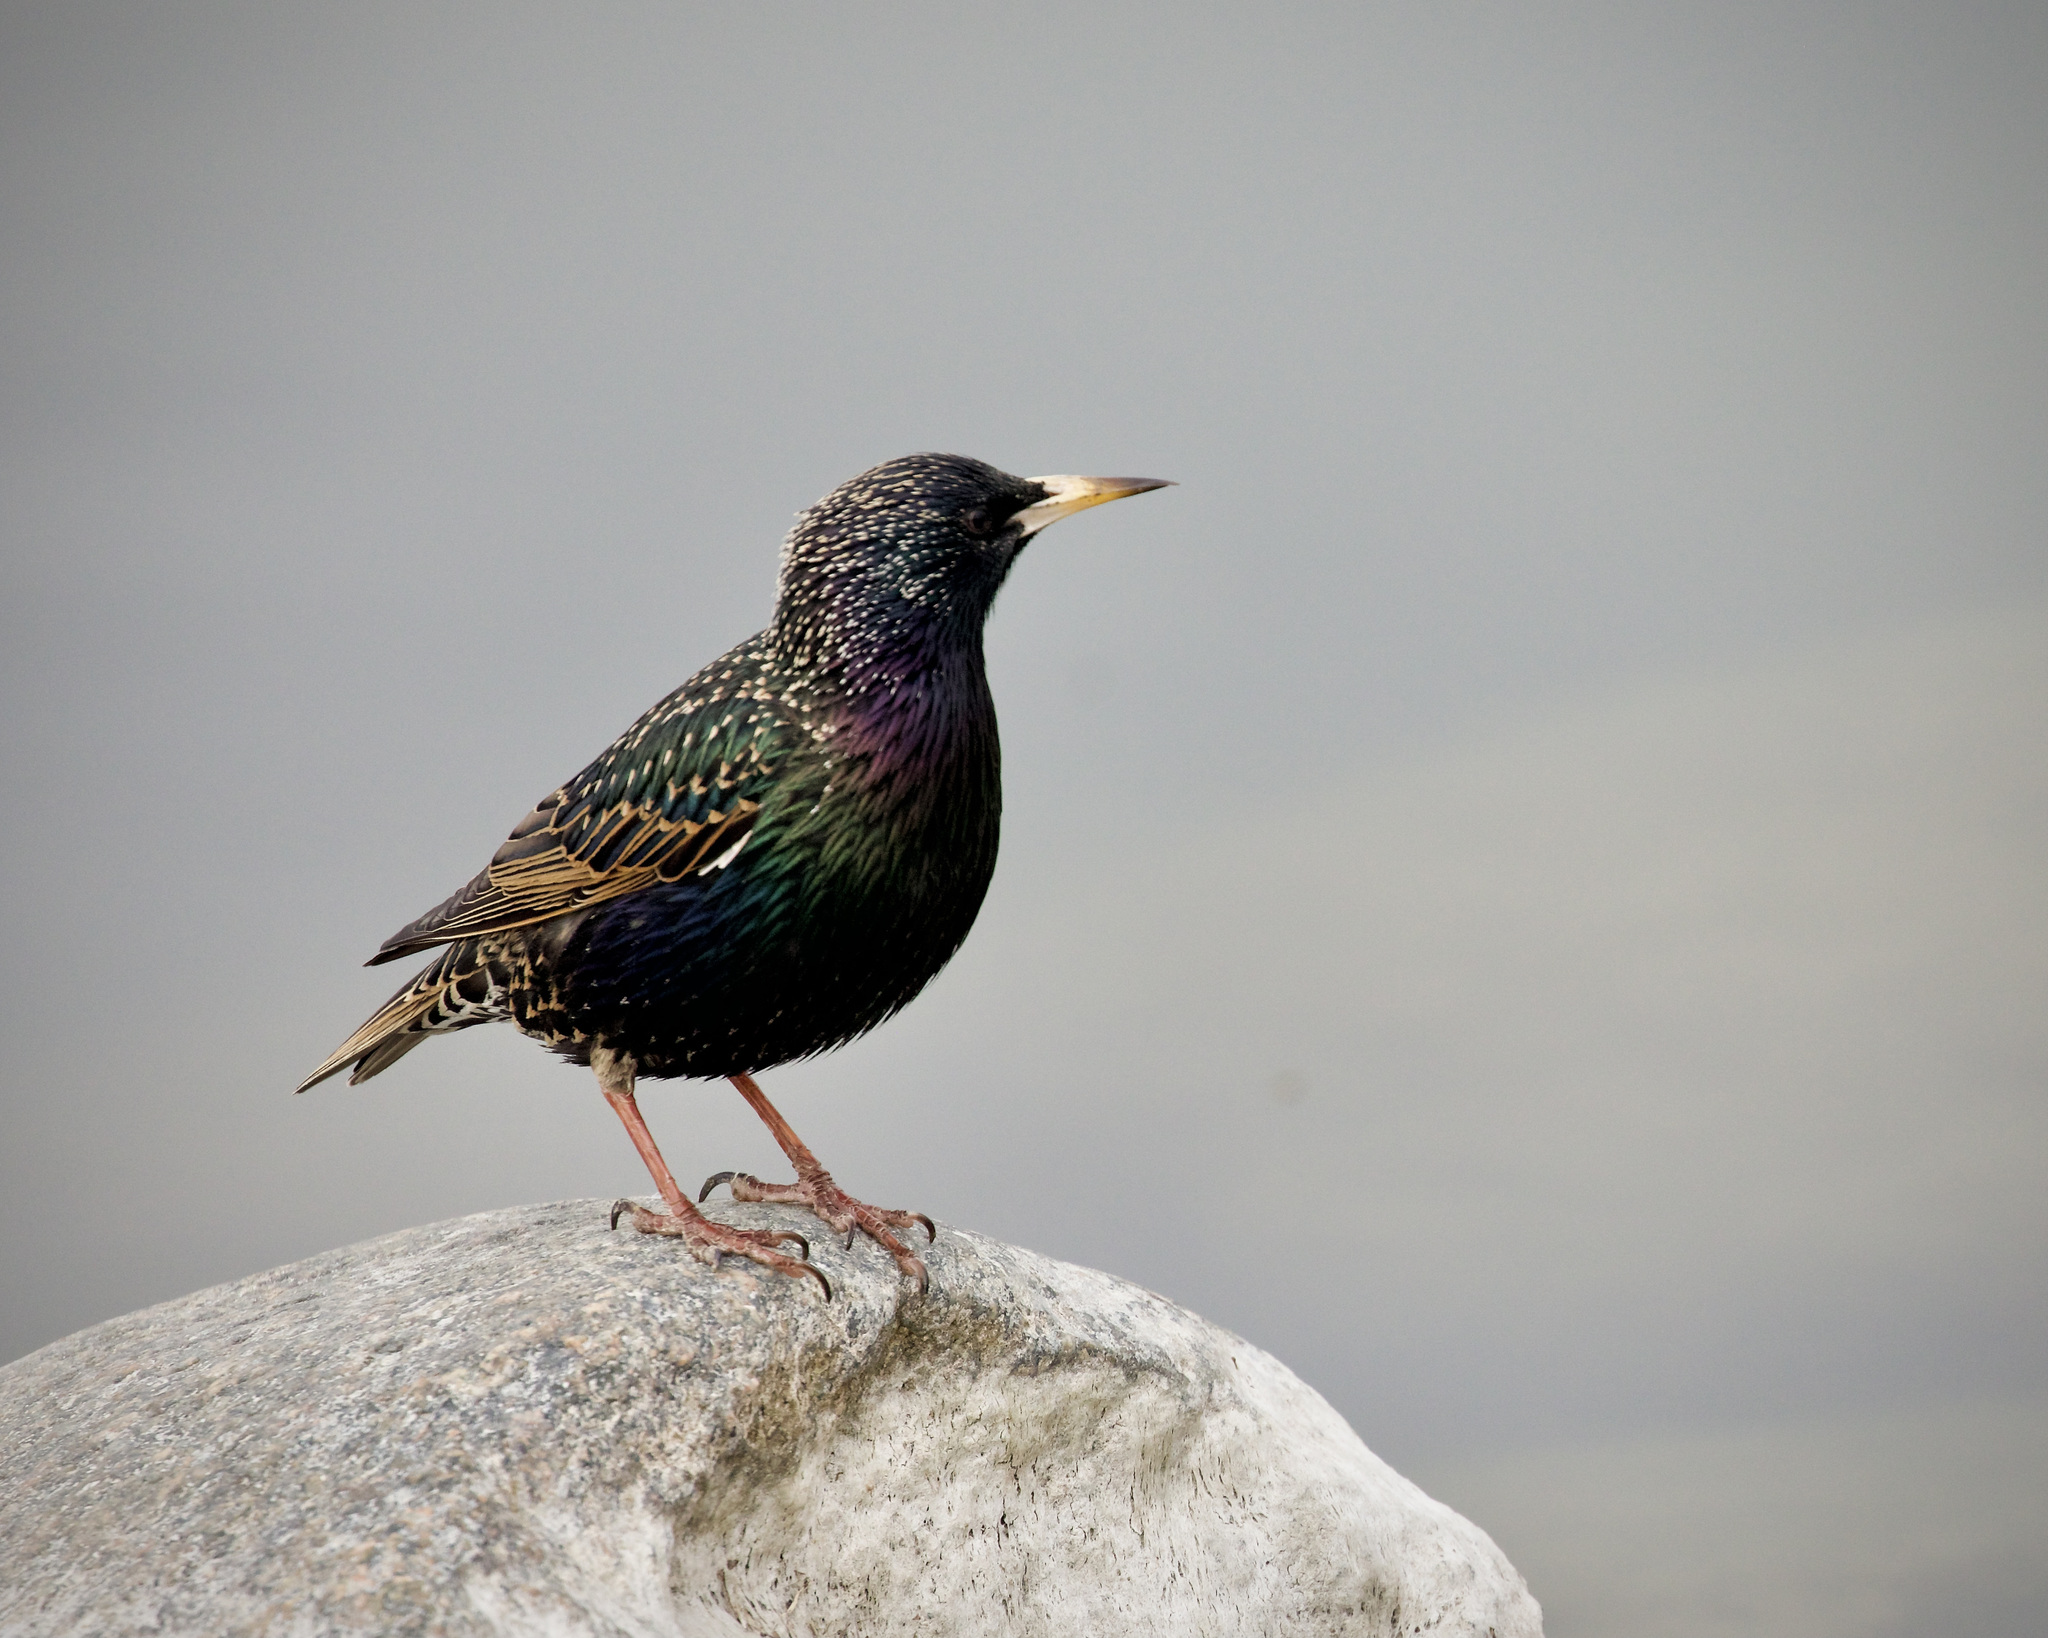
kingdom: Animalia
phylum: Chordata
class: Aves
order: Passeriformes
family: Sturnidae
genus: Sturnus
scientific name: Sturnus vulgaris
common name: Common starling
